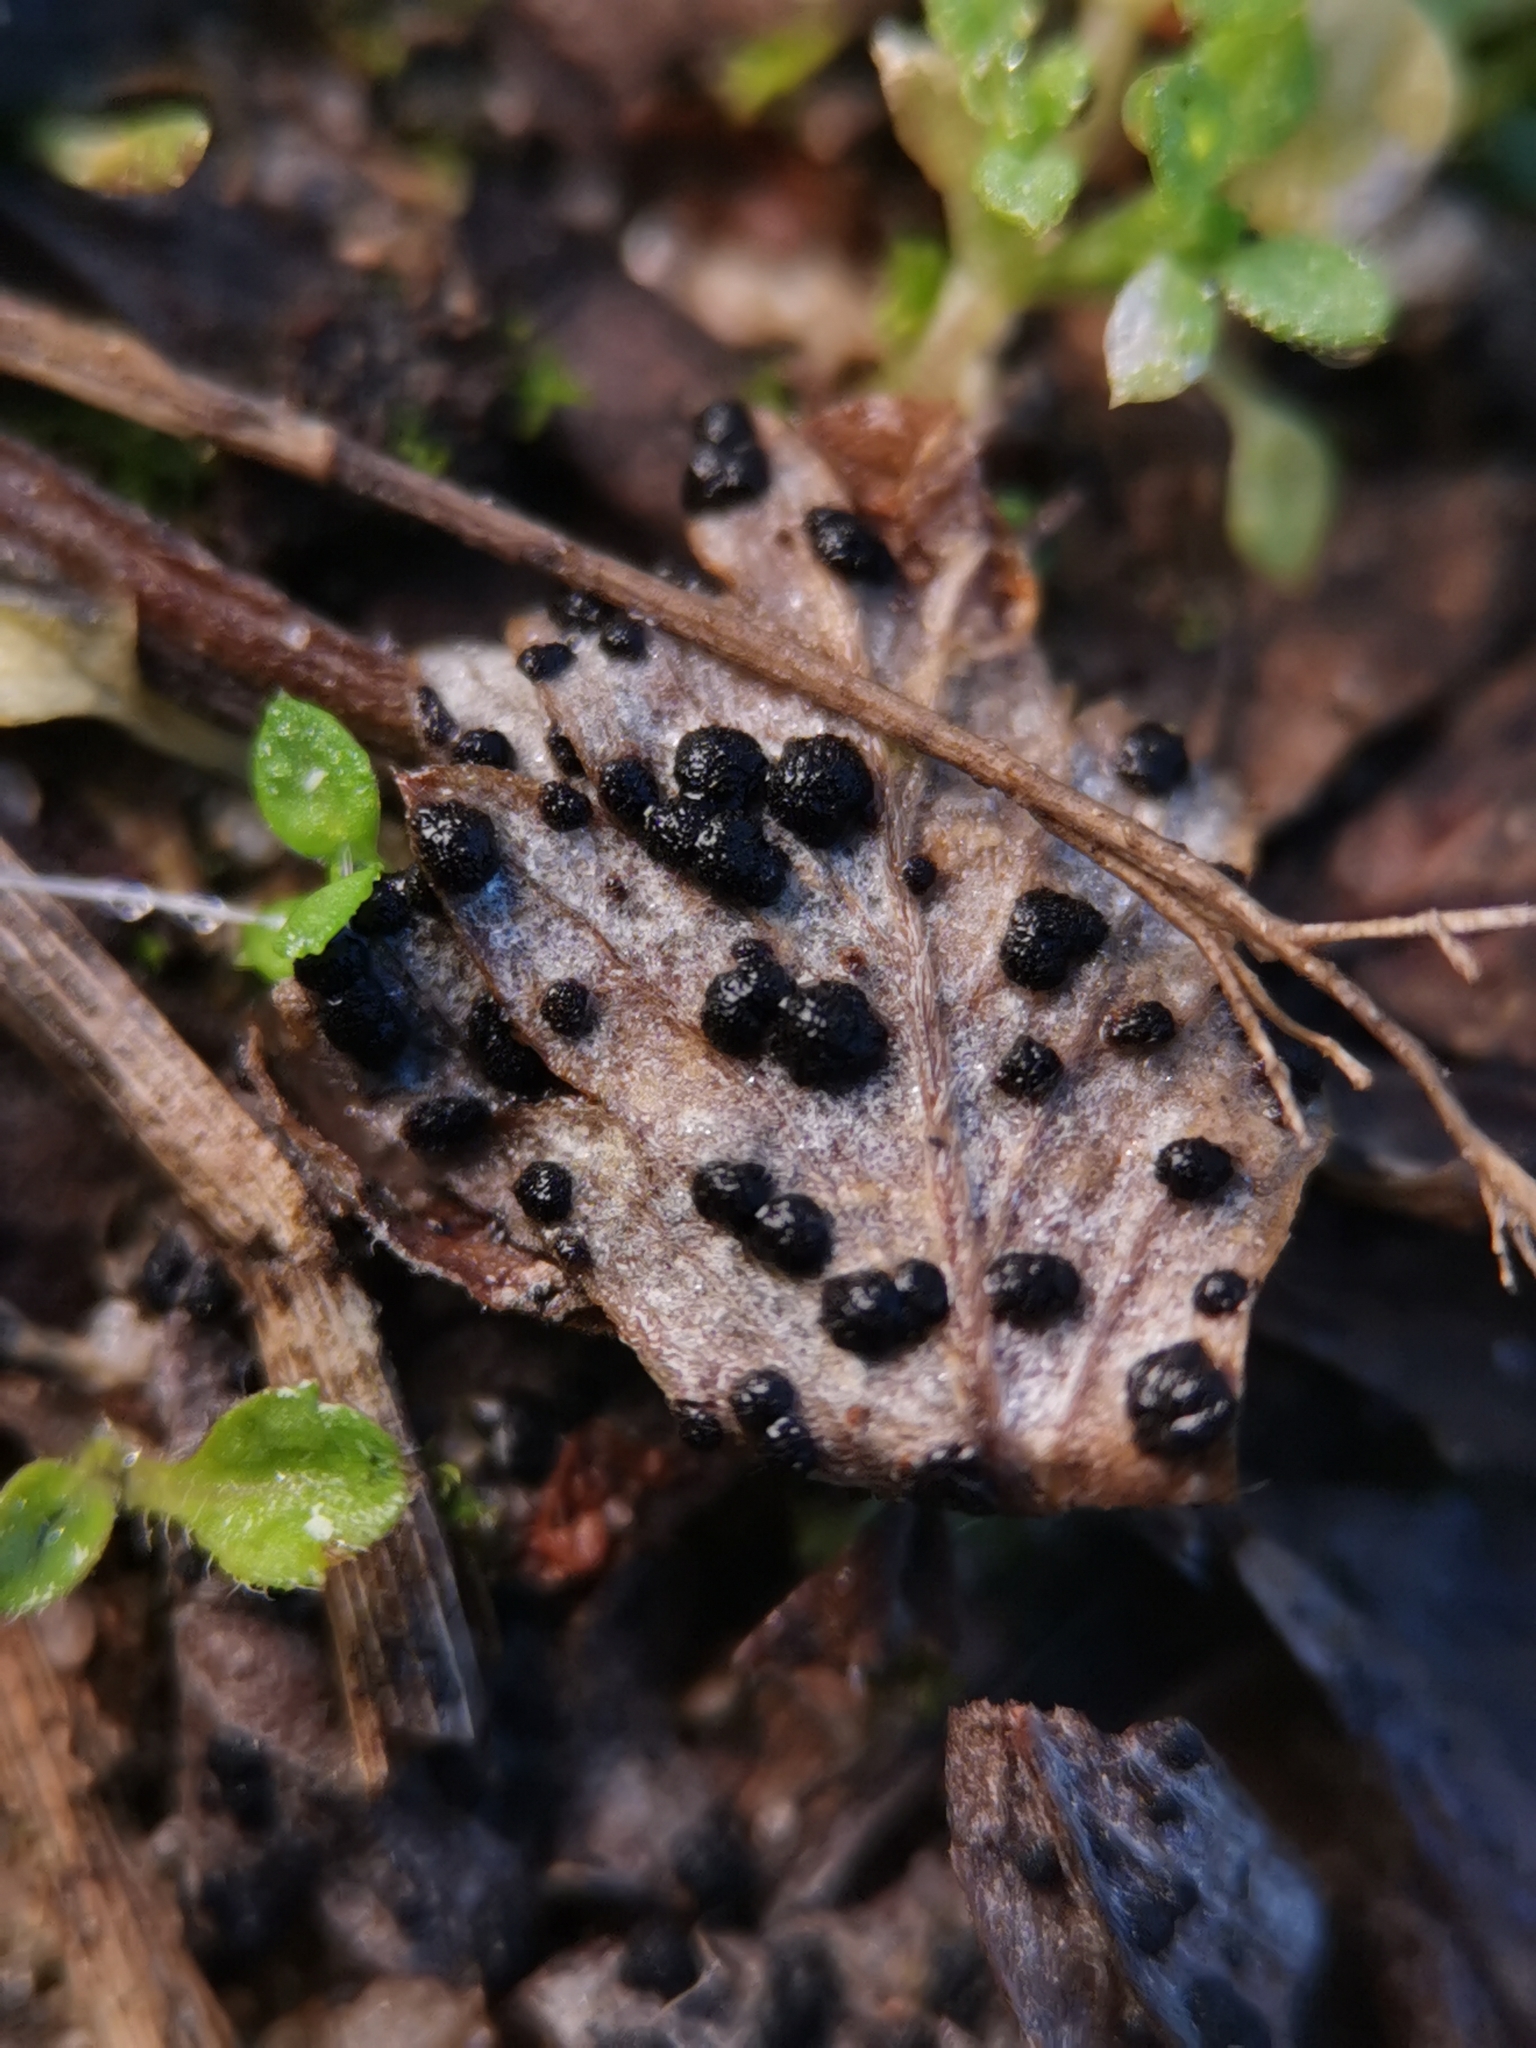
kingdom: Fungi
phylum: Basidiomycota
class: Pucciniomycetes
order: Pucciniales
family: Phragmidiaceae
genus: Phragmidium
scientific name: Phragmidium potentillae
